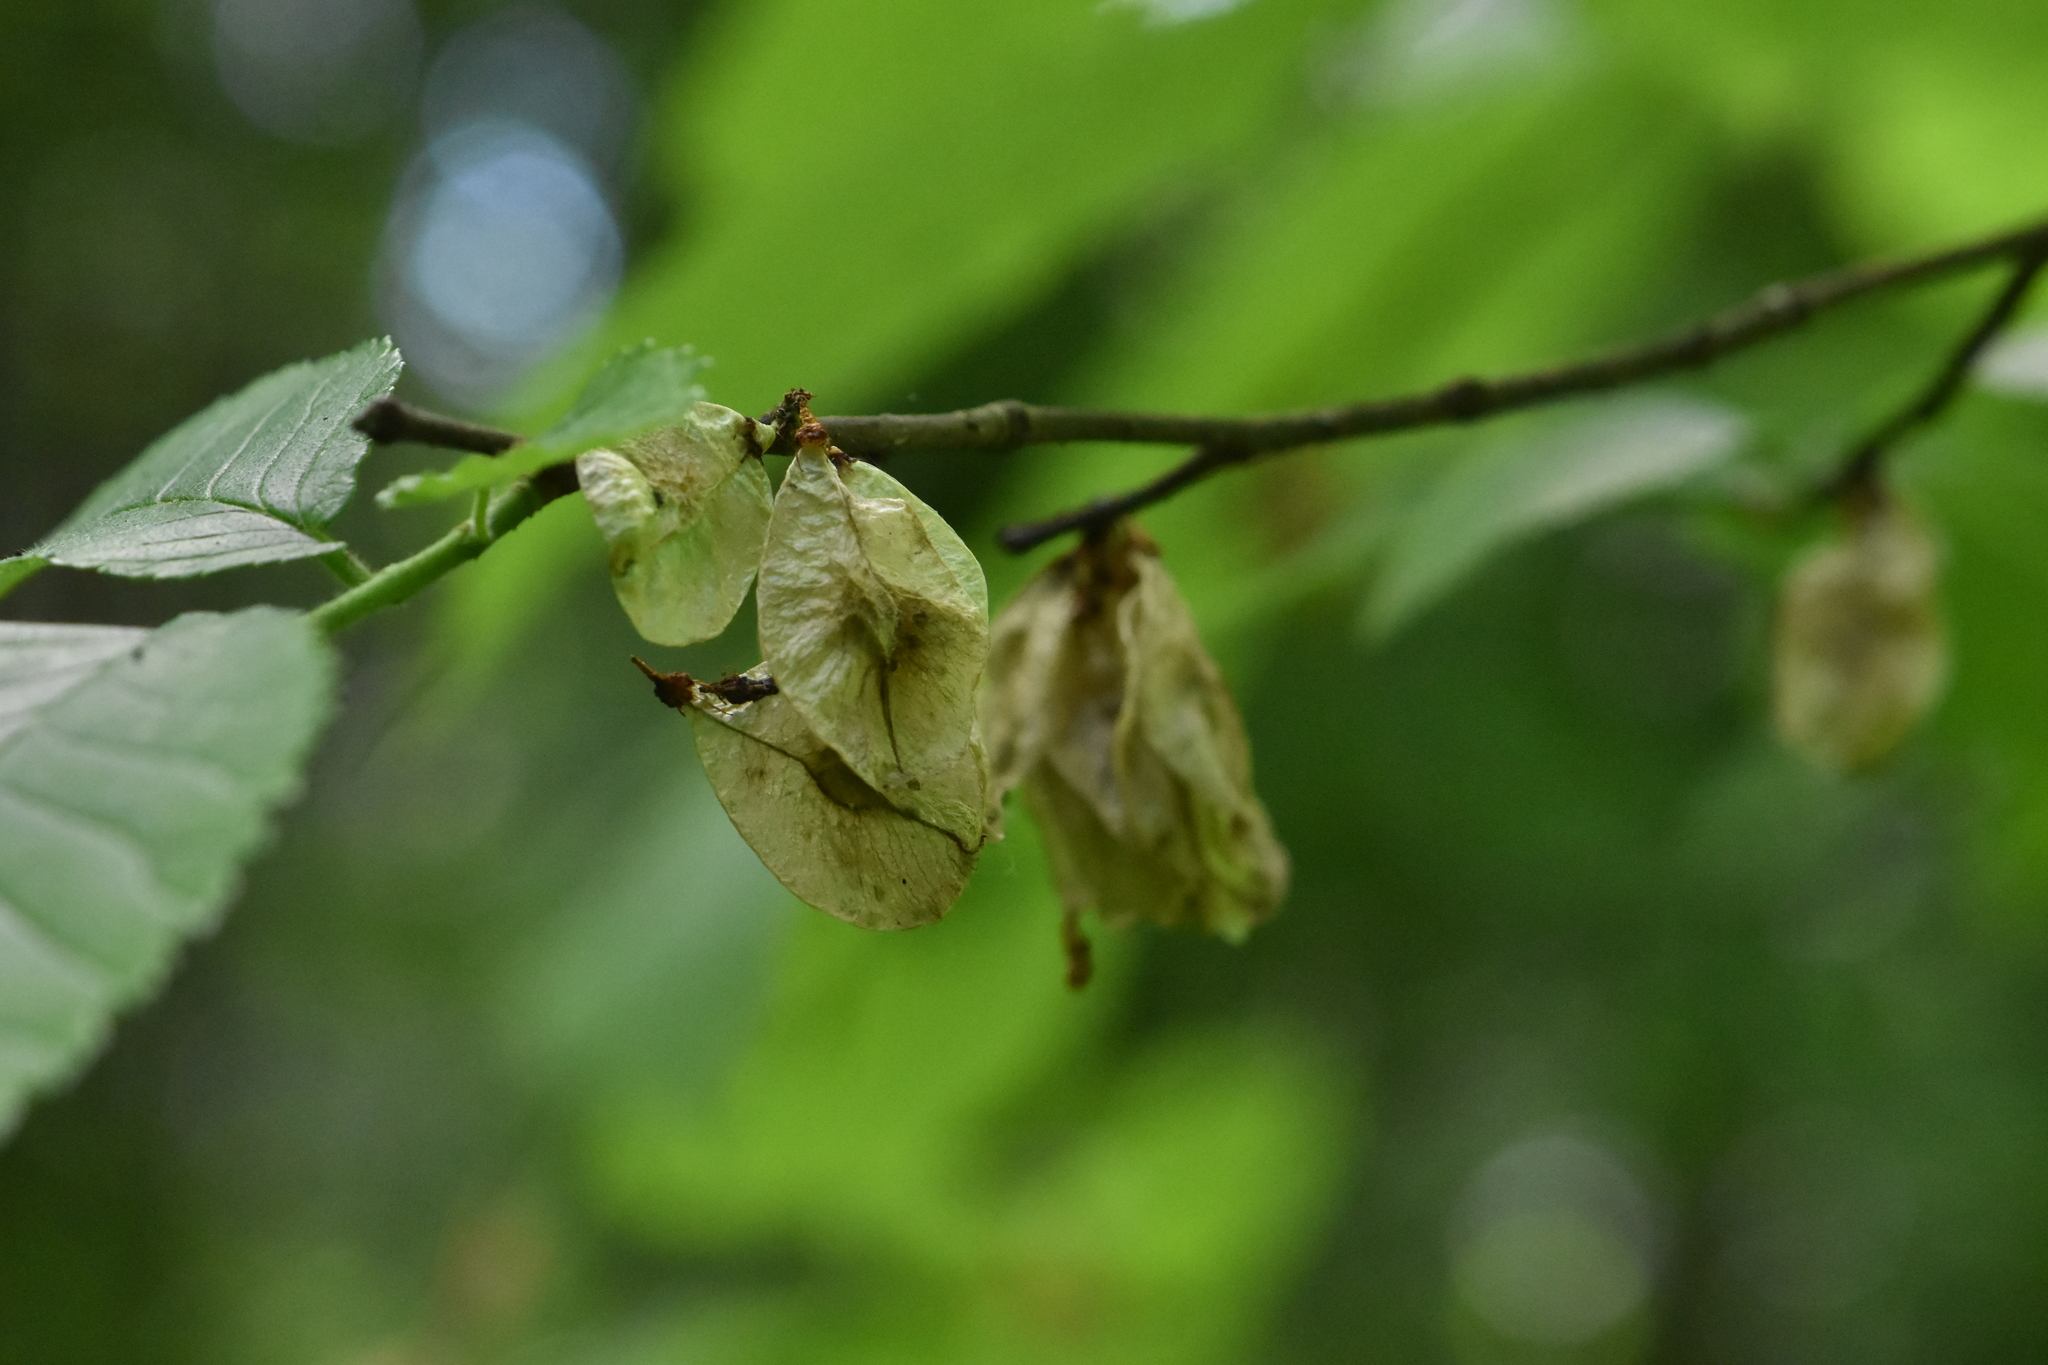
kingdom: Plantae
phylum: Tracheophyta
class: Magnoliopsida
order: Rosales
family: Ulmaceae
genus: Ulmus
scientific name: Ulmus glabra
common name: Wych elm
